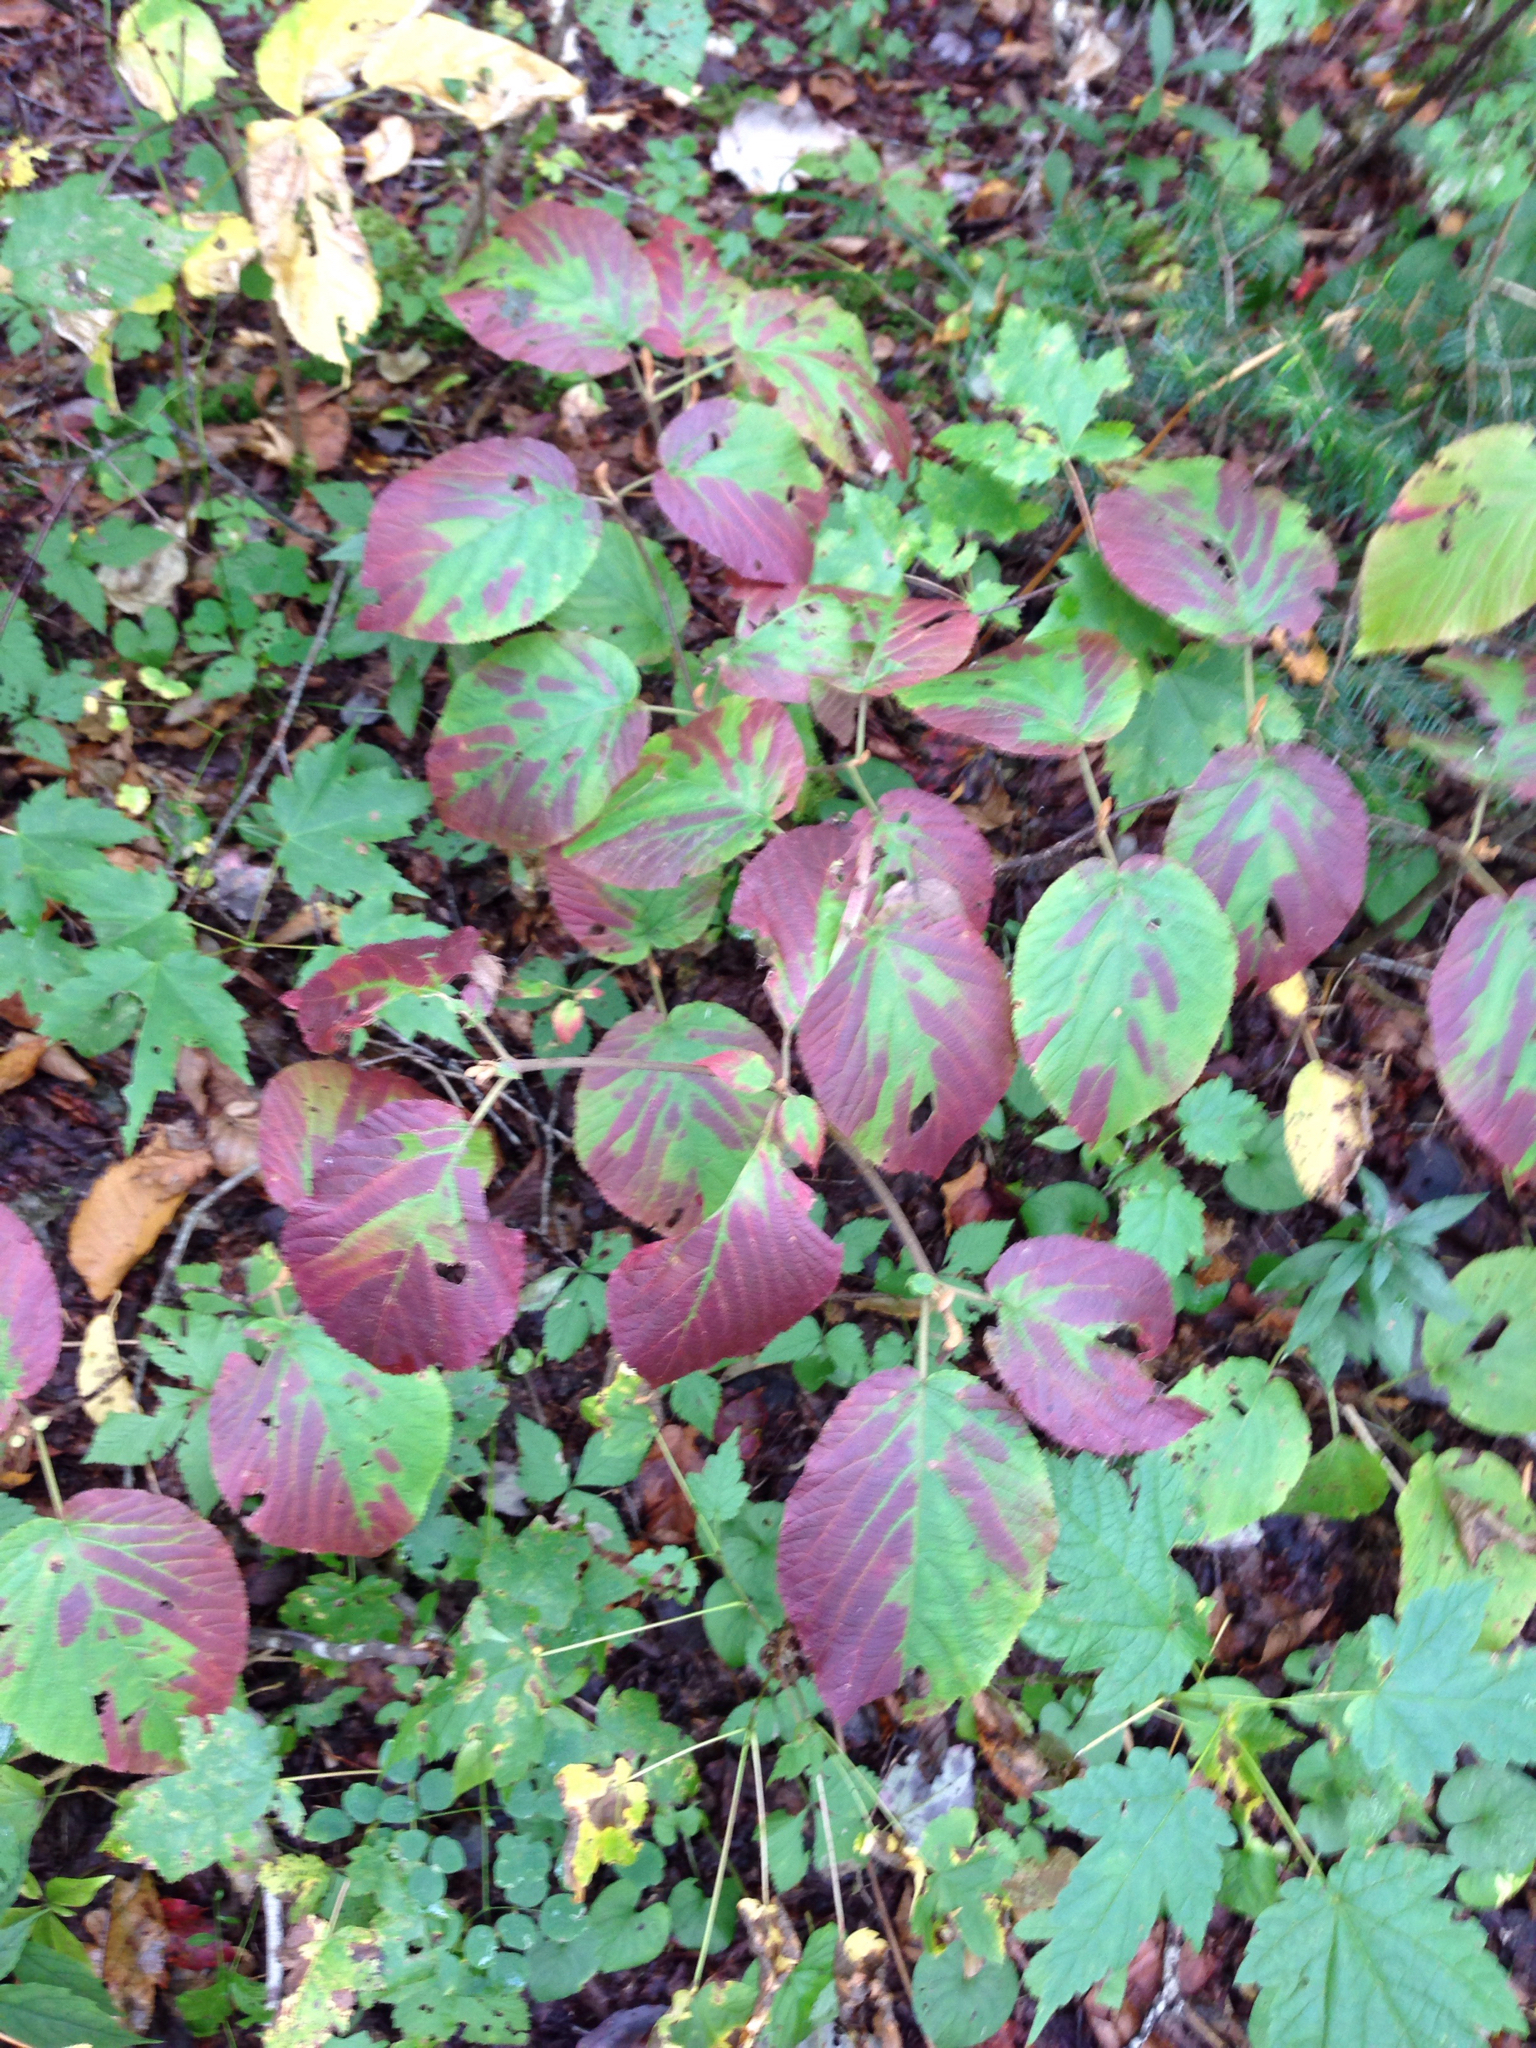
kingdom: Plantae
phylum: Tracheophyta
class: Magnoliopsida
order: Dipsacales
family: Viburnaceae
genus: Viburnum
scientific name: Viburnum lantanoides
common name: Hobblebush
